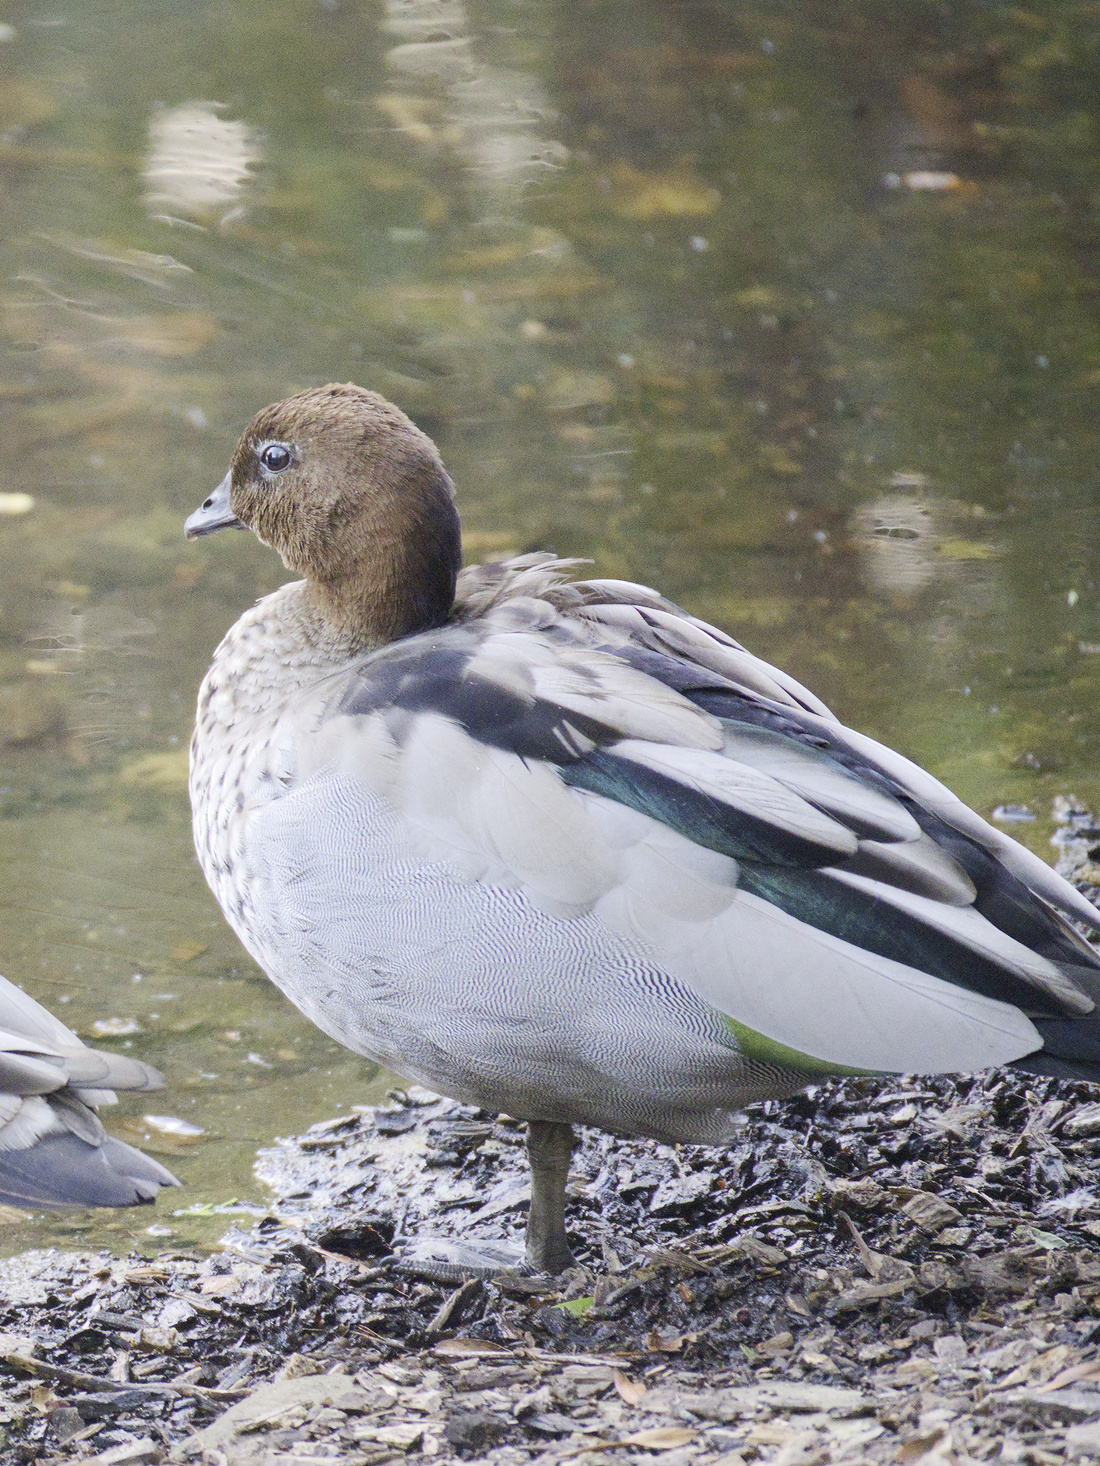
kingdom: Animalia
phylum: Chordata
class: Aves
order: Anseriformes
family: Anatidae
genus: Chenonetta
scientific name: Chenonetta jubata
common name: Maned duck
